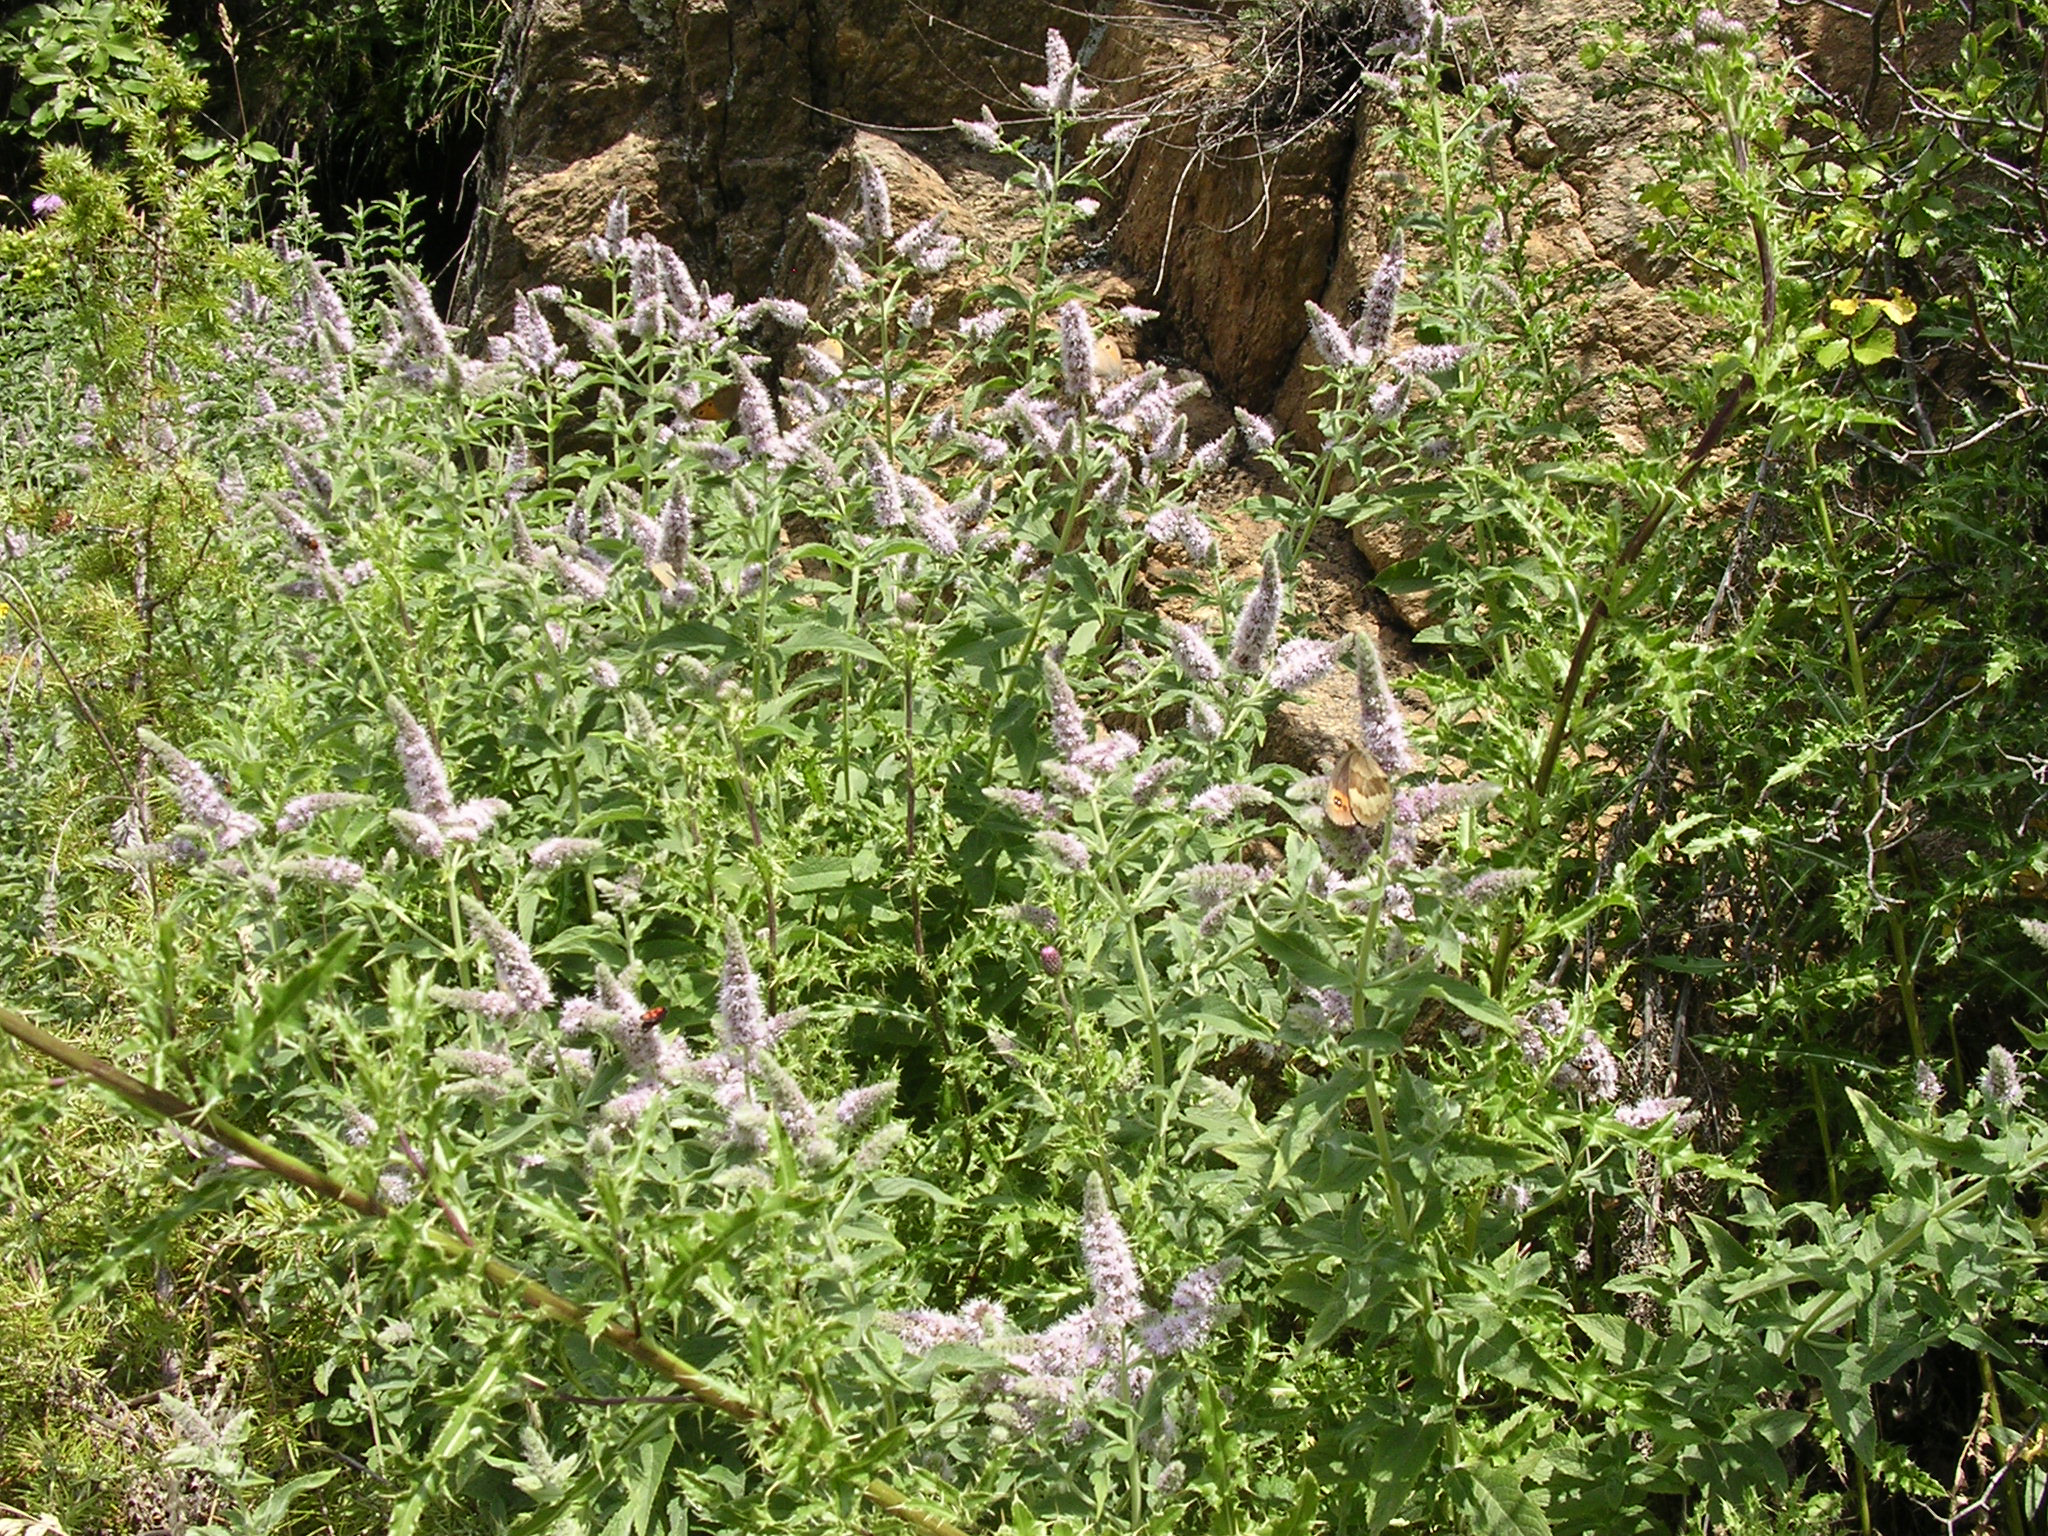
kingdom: Plantae
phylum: Tracheophyta
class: Magnoliopsida
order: Lamiales
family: Lamiaceae
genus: Mentha
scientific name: Mentha longifolia
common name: Horse mint
